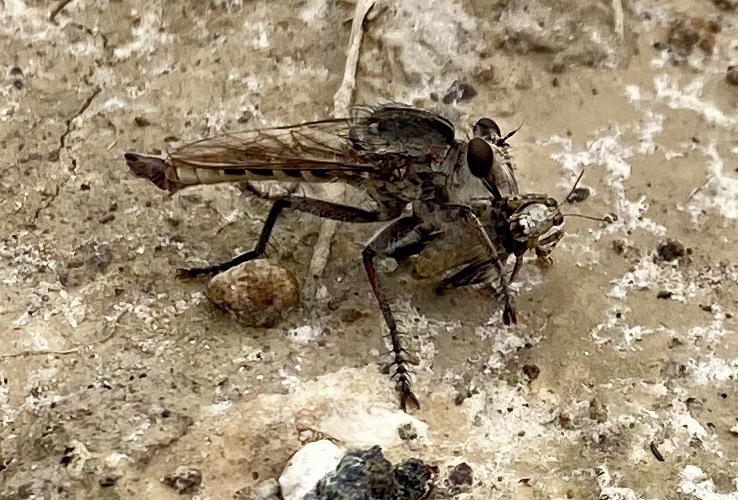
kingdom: Animalia
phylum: Arthropoda
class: Insecta
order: Diptera
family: Asilidae
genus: Triorla
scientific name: Triorla interrupta
